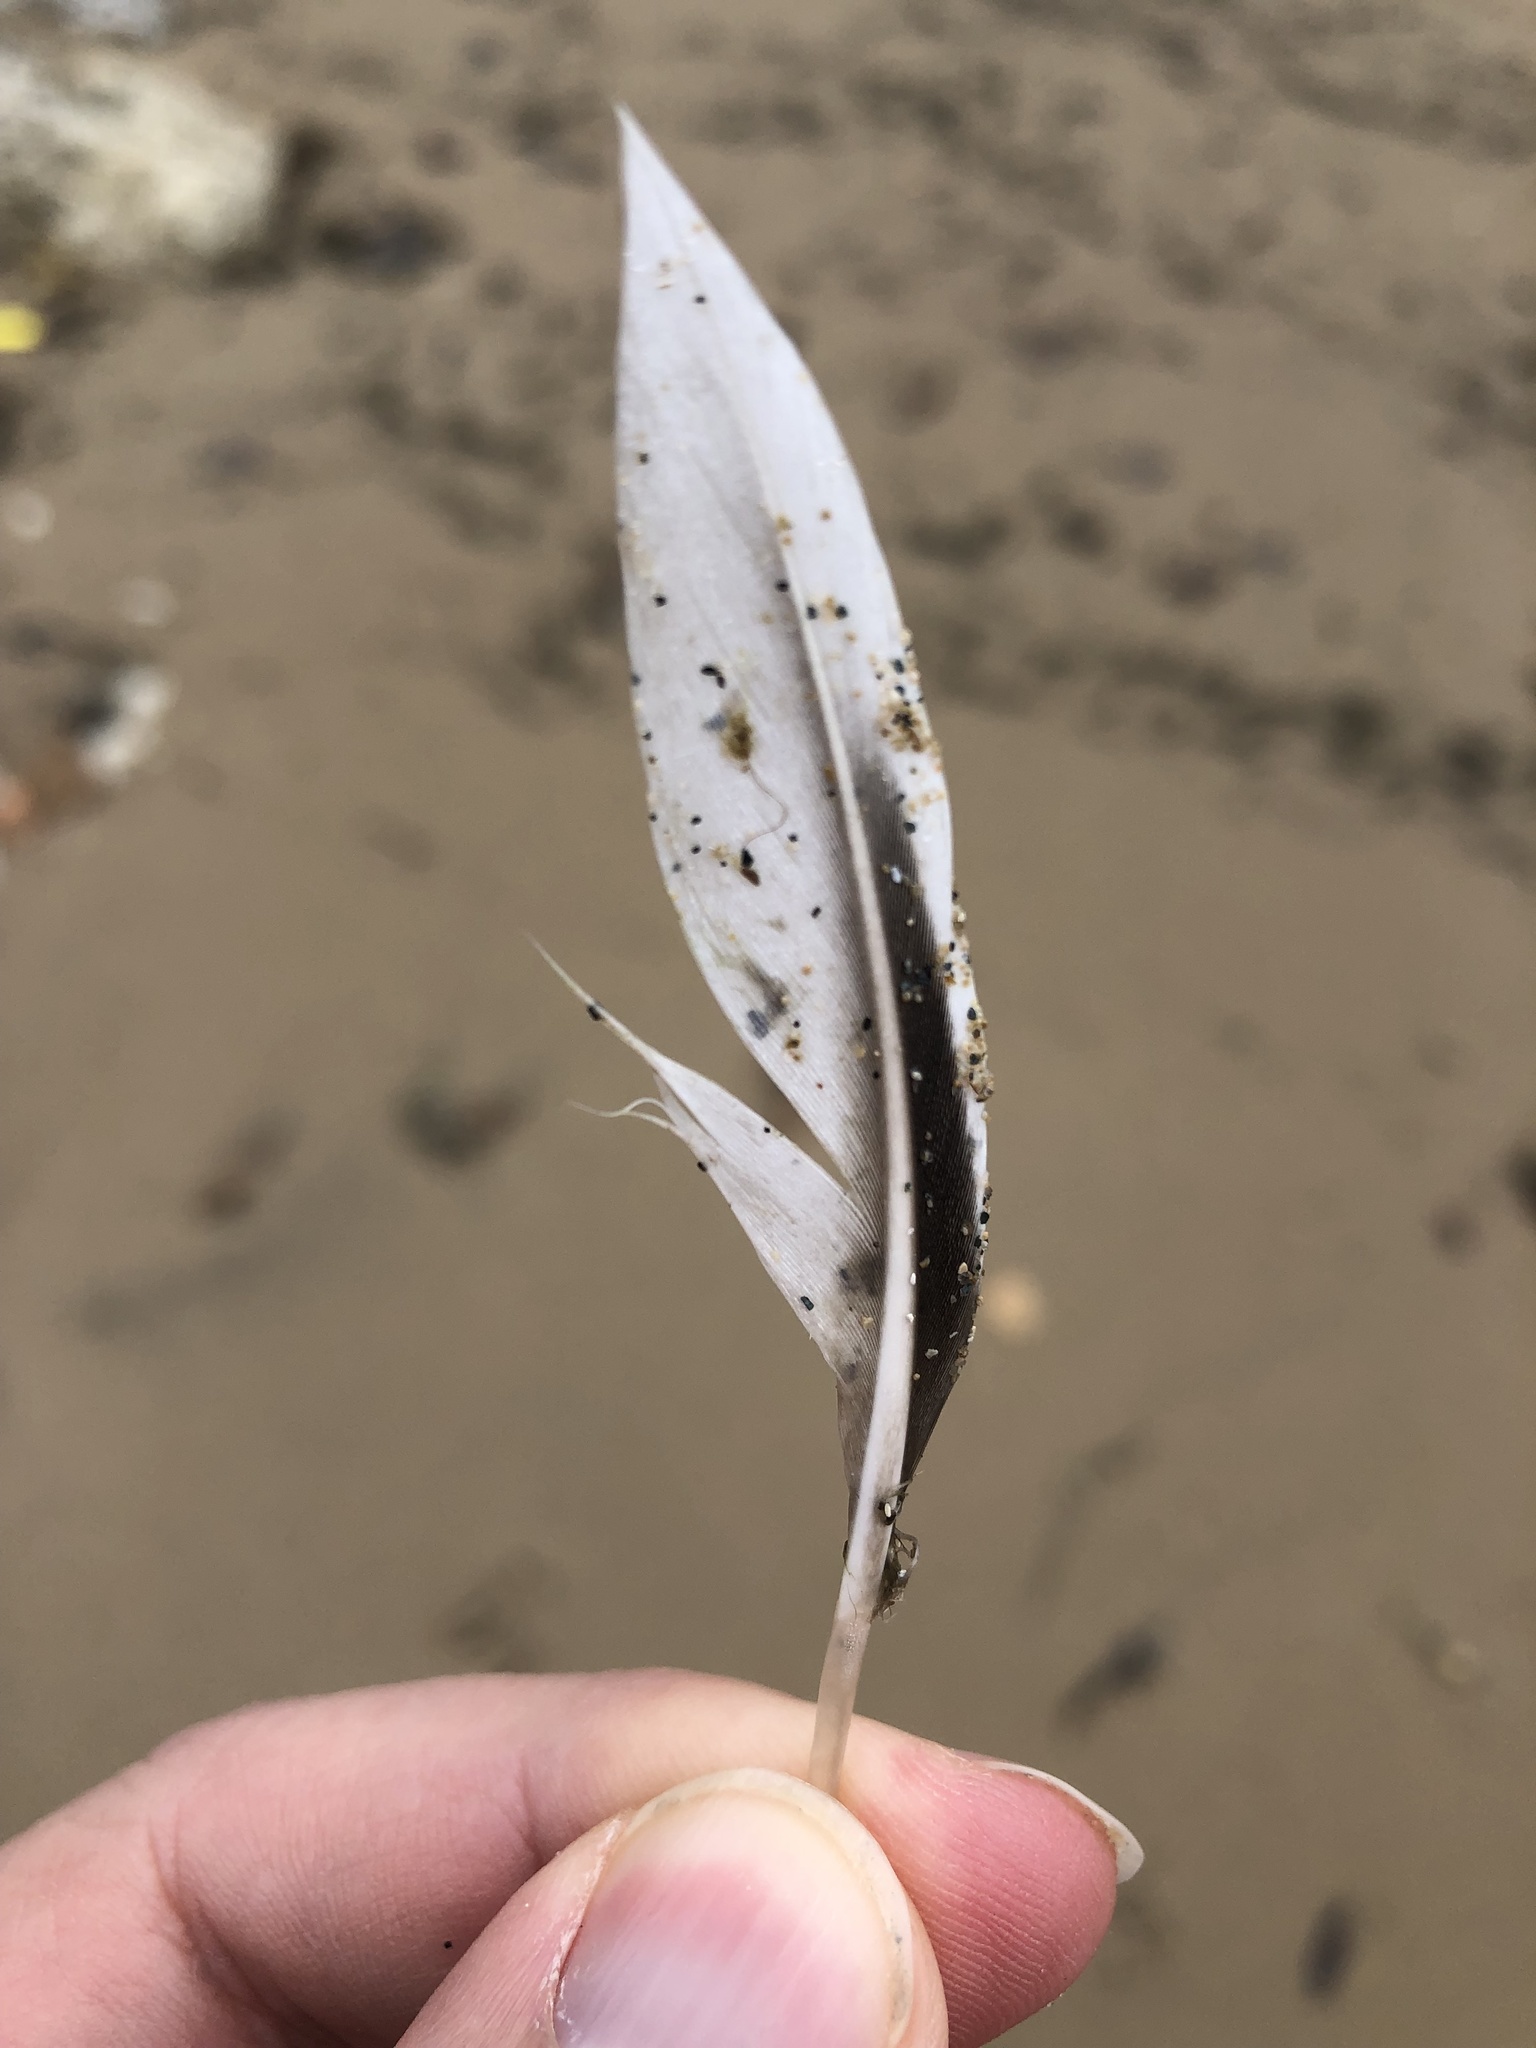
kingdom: Animalia
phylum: Chordata
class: Aves
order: Anseriformes
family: Anatidae
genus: Clangula
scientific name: Clangula hyemalis
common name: Long-tailed duck
